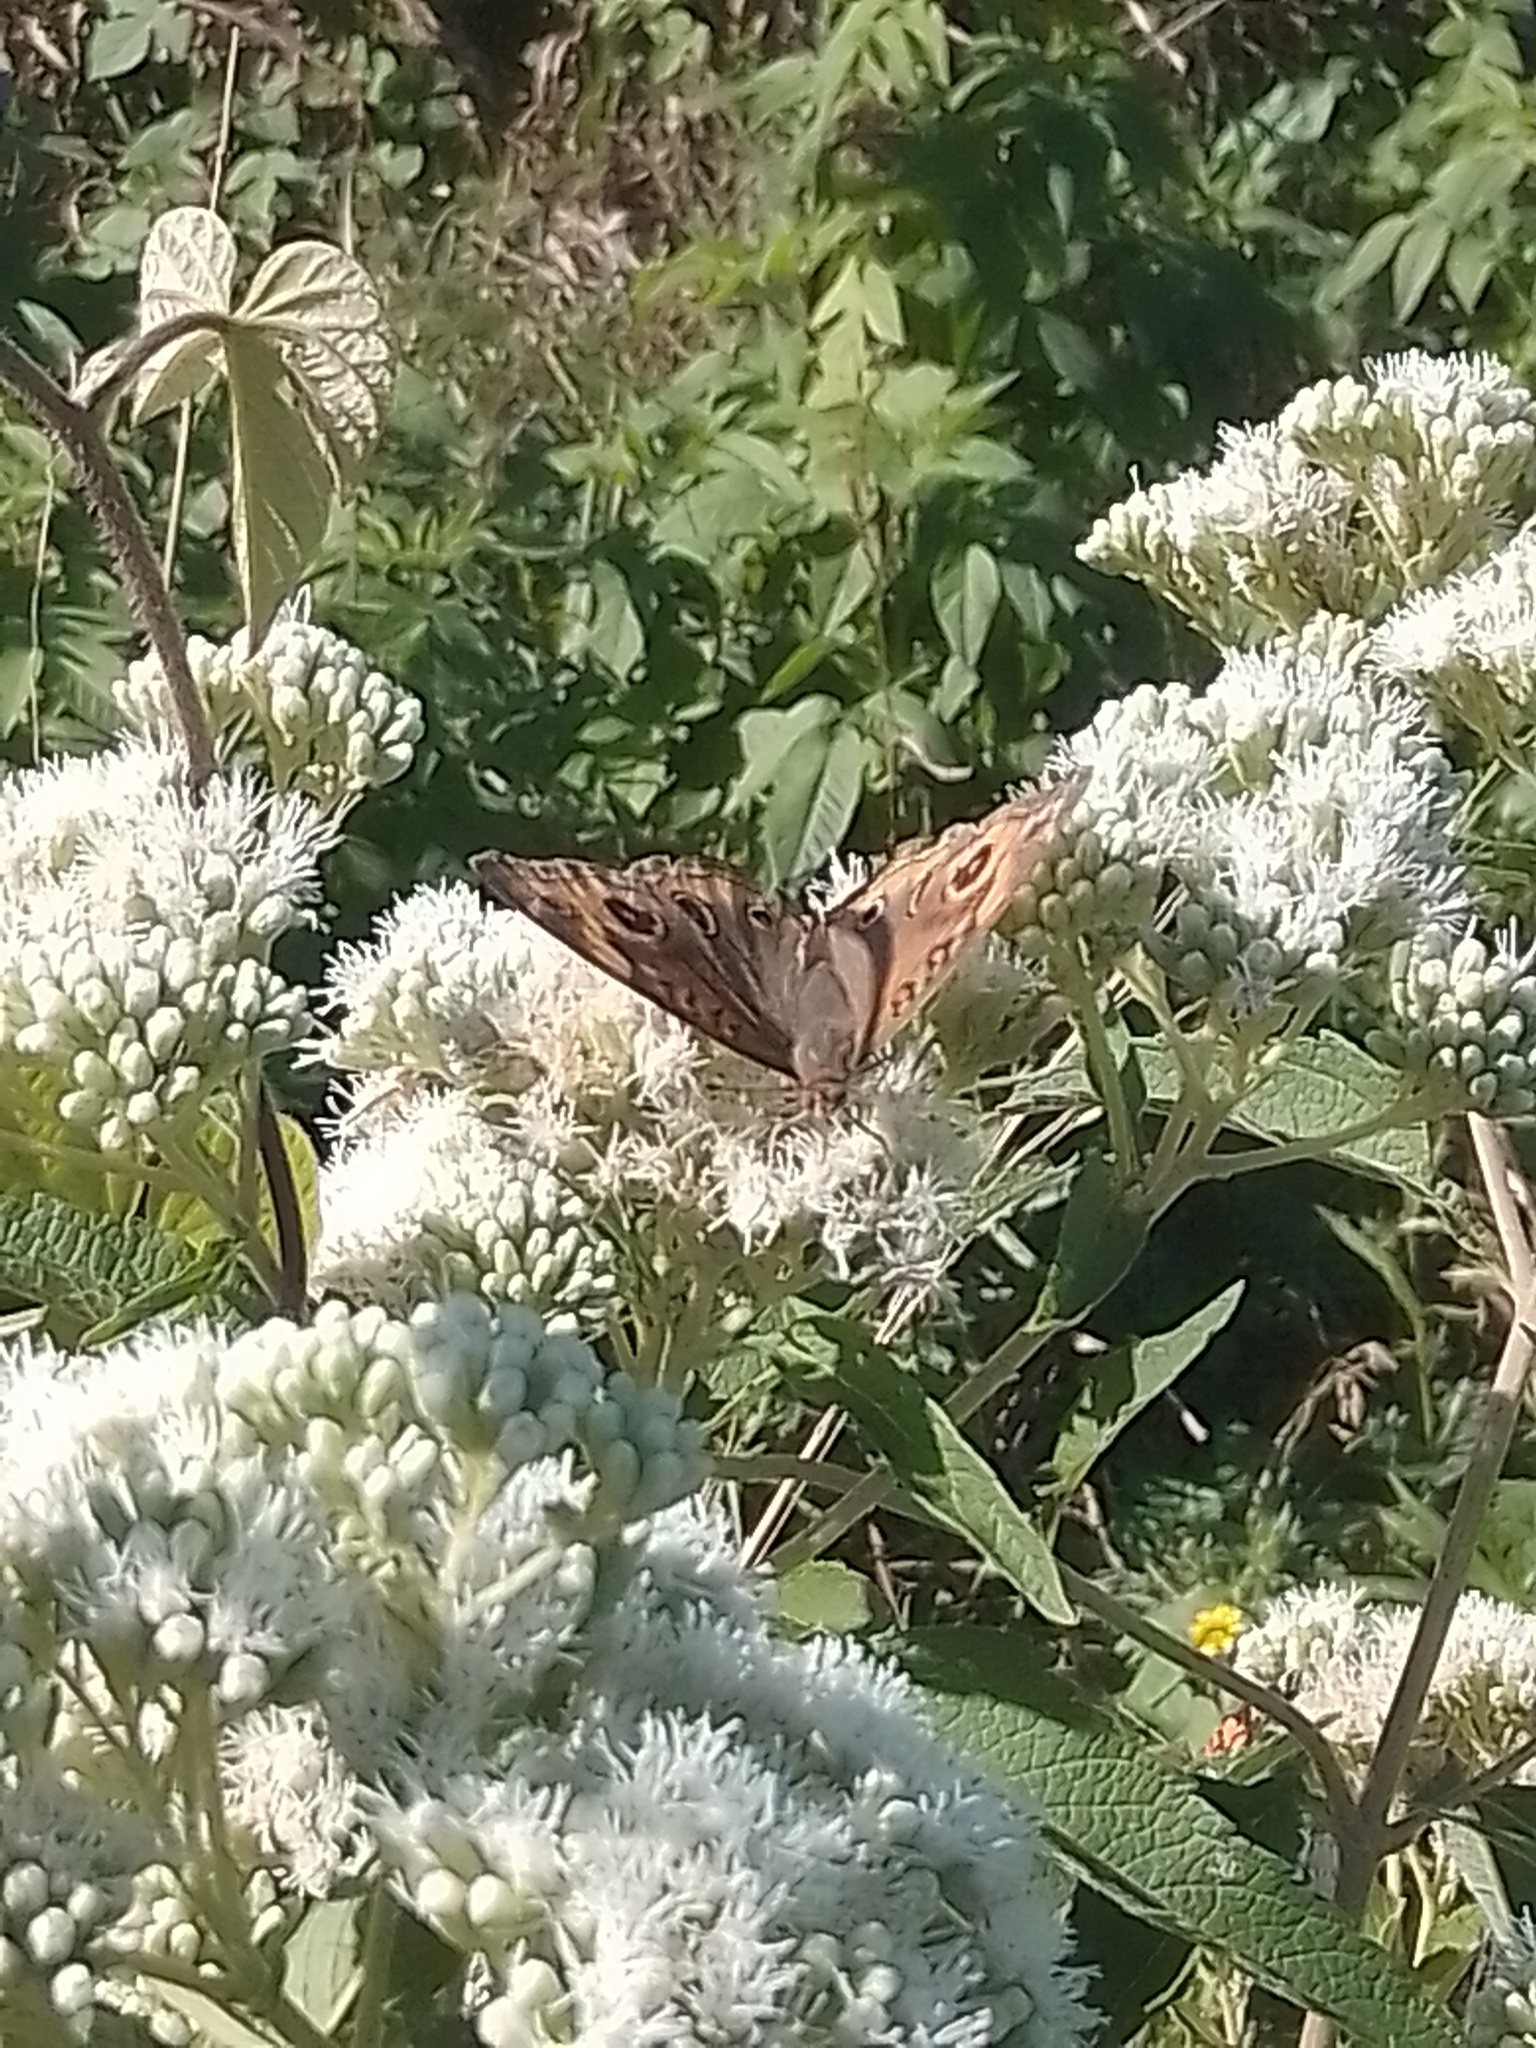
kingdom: Animalia
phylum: Arthropoda
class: Insecta
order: Lepidoptera
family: Nymphalidae
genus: Junonia
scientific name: Junonia lavinia
